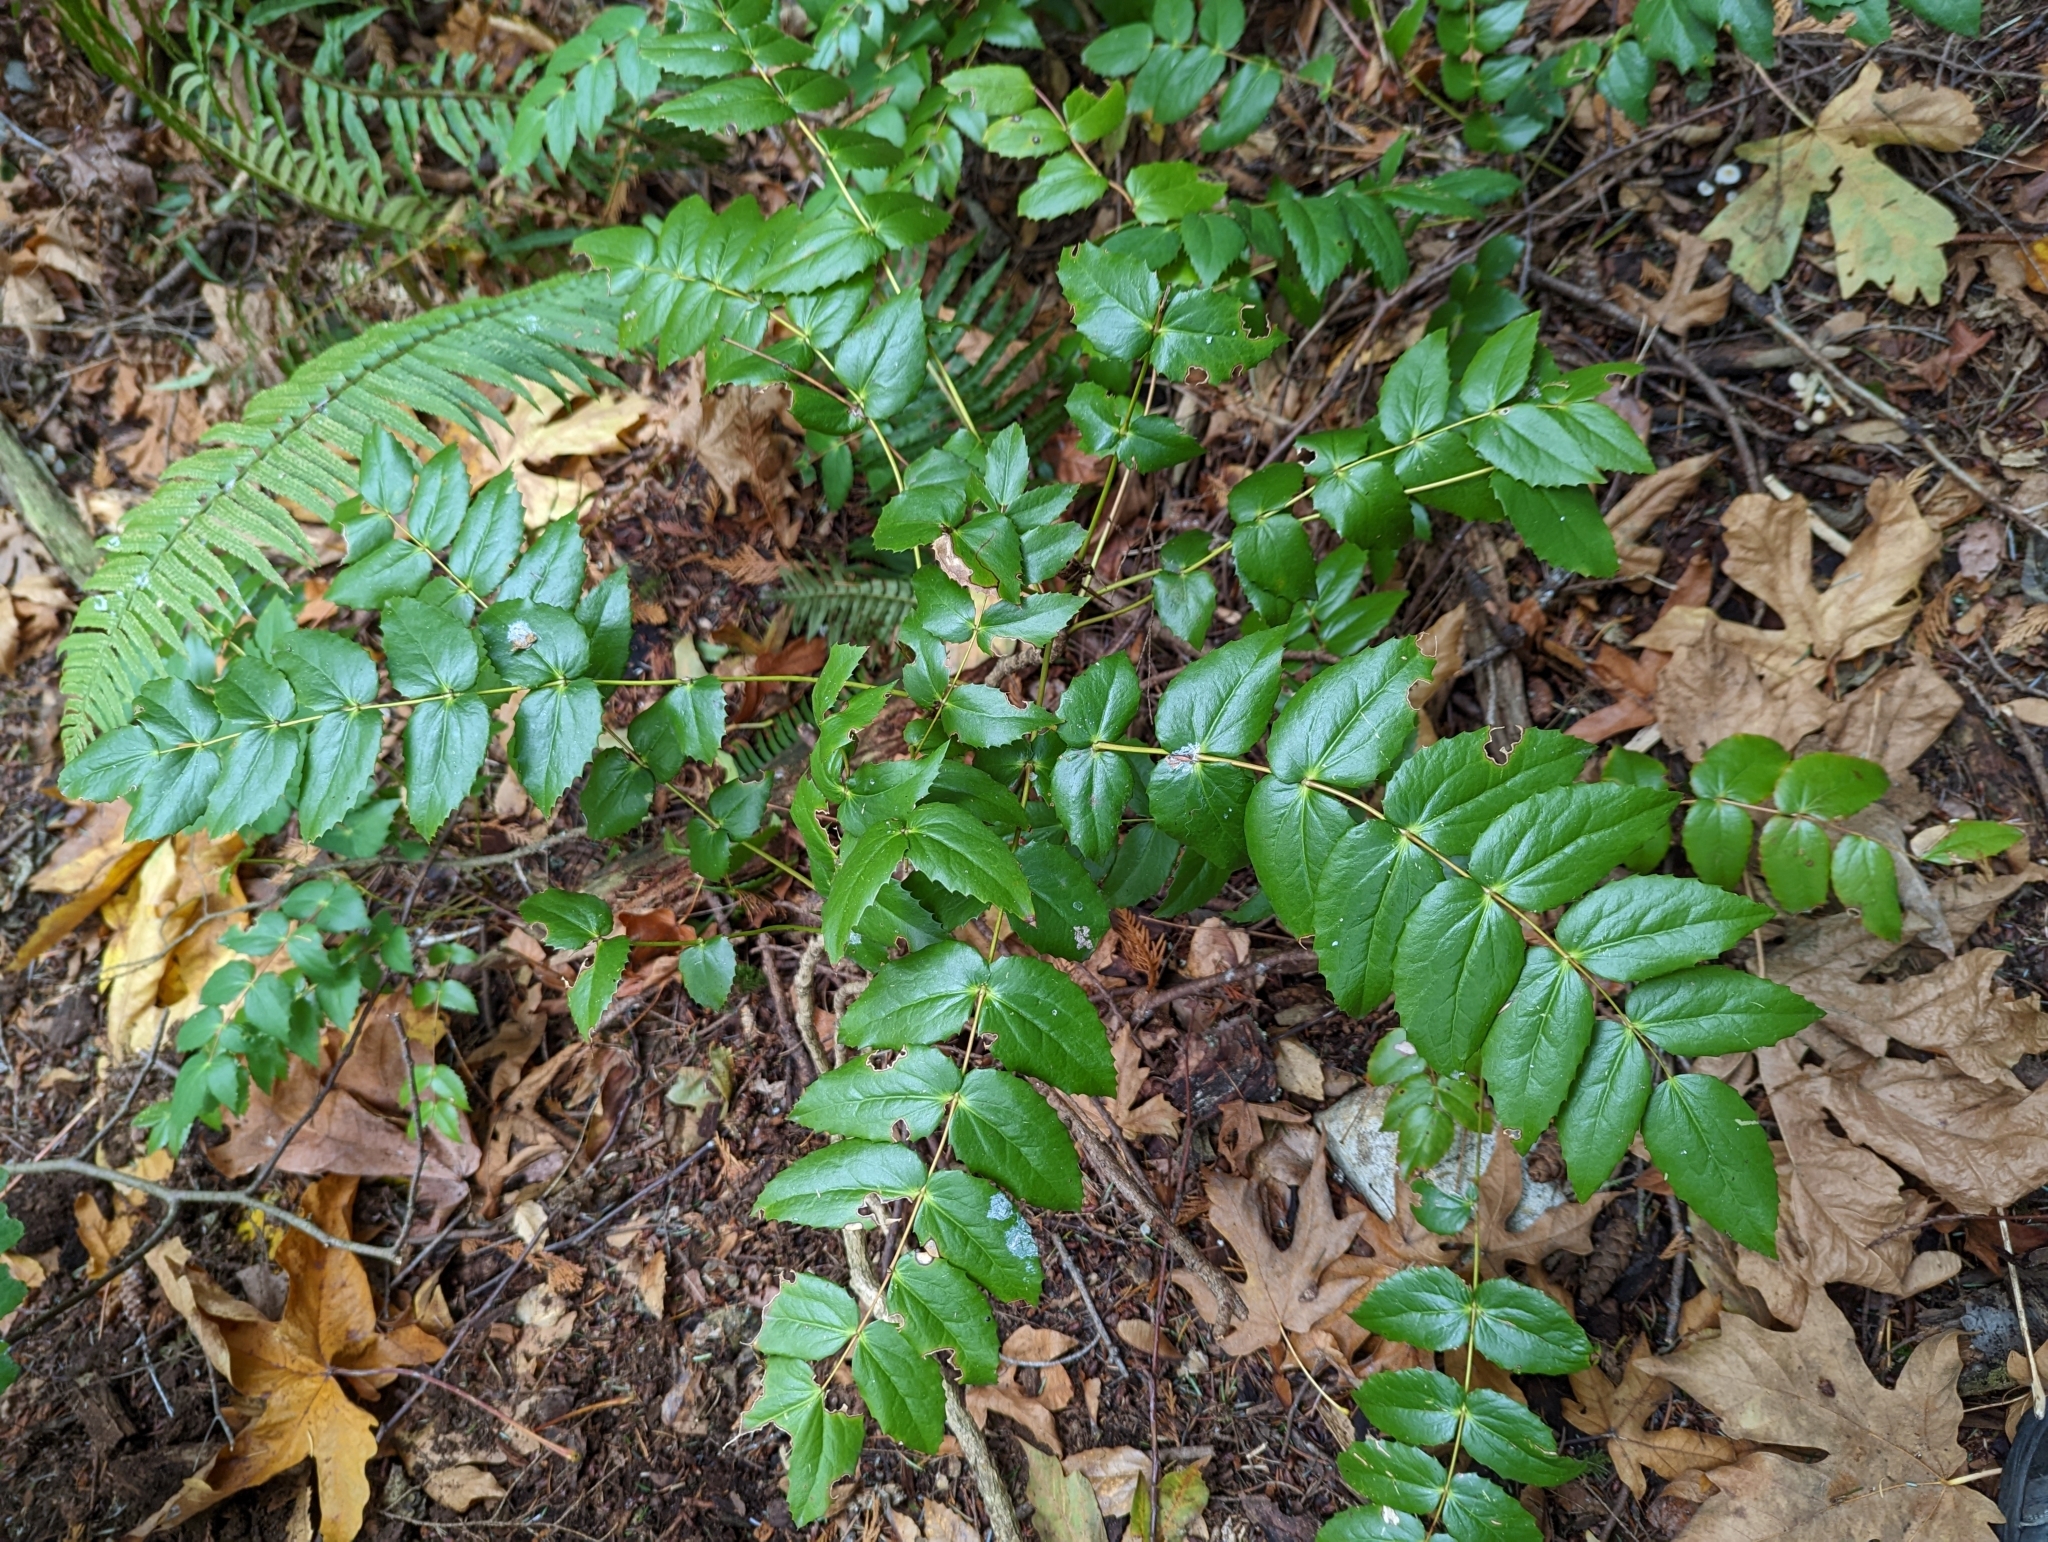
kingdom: Plantae
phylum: Tracheophyta
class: Magnoliopsida
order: Ranunculales
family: Berberidaceae
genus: Mahonia
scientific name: Mahonia nervosa
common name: Cascade oregon-grape
